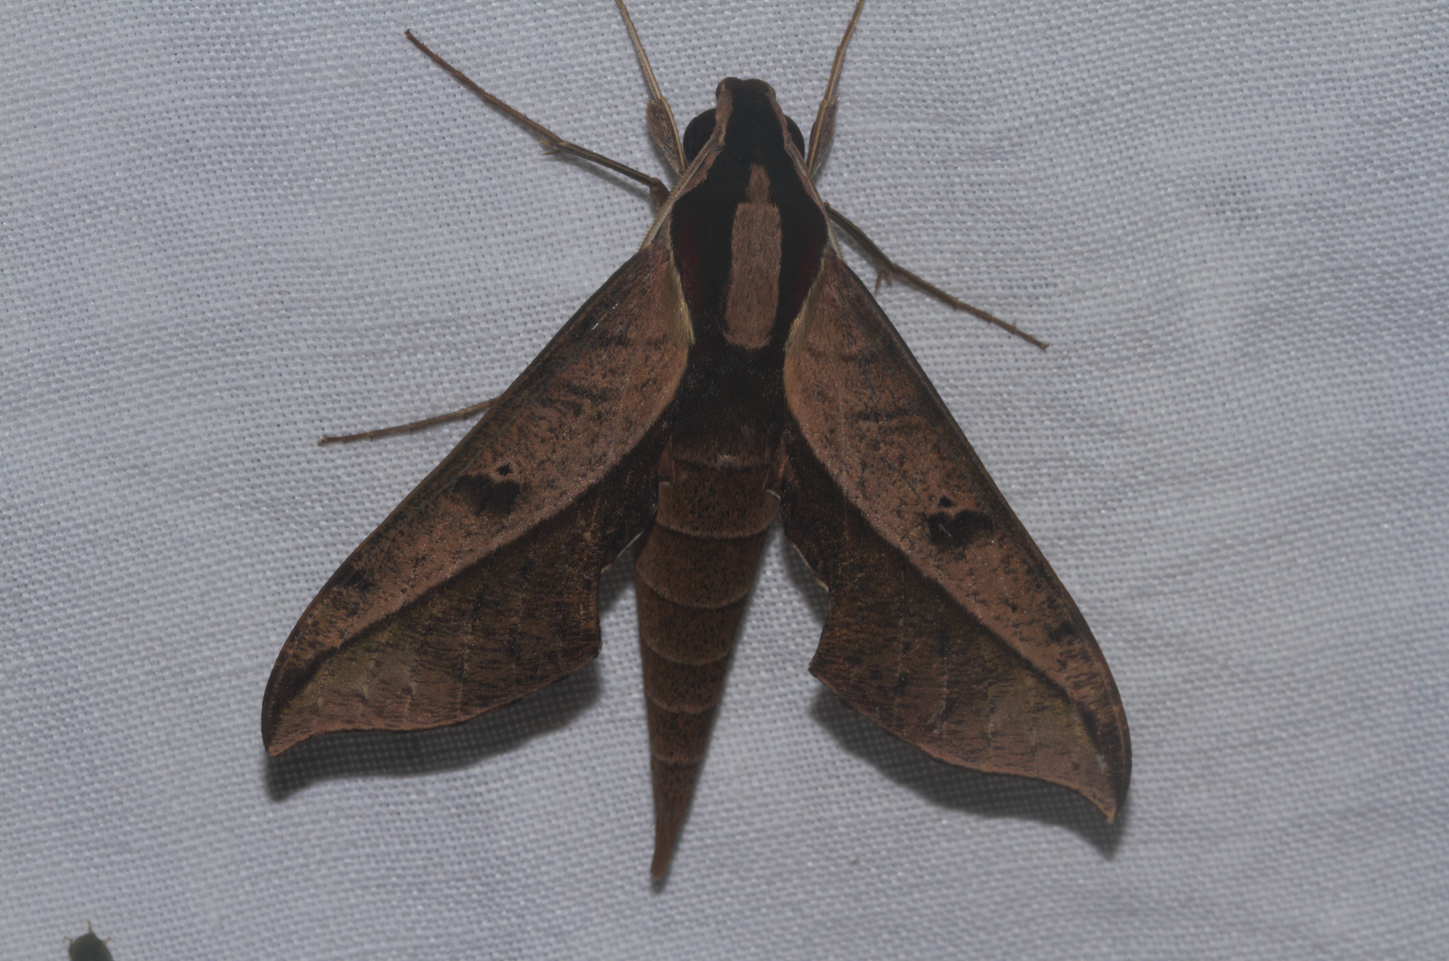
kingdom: Animalia
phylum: Arthropoda
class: Insecta
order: Lepidoptera
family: Sphingidae
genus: Xylophanes
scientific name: Xylophanes epaphus
